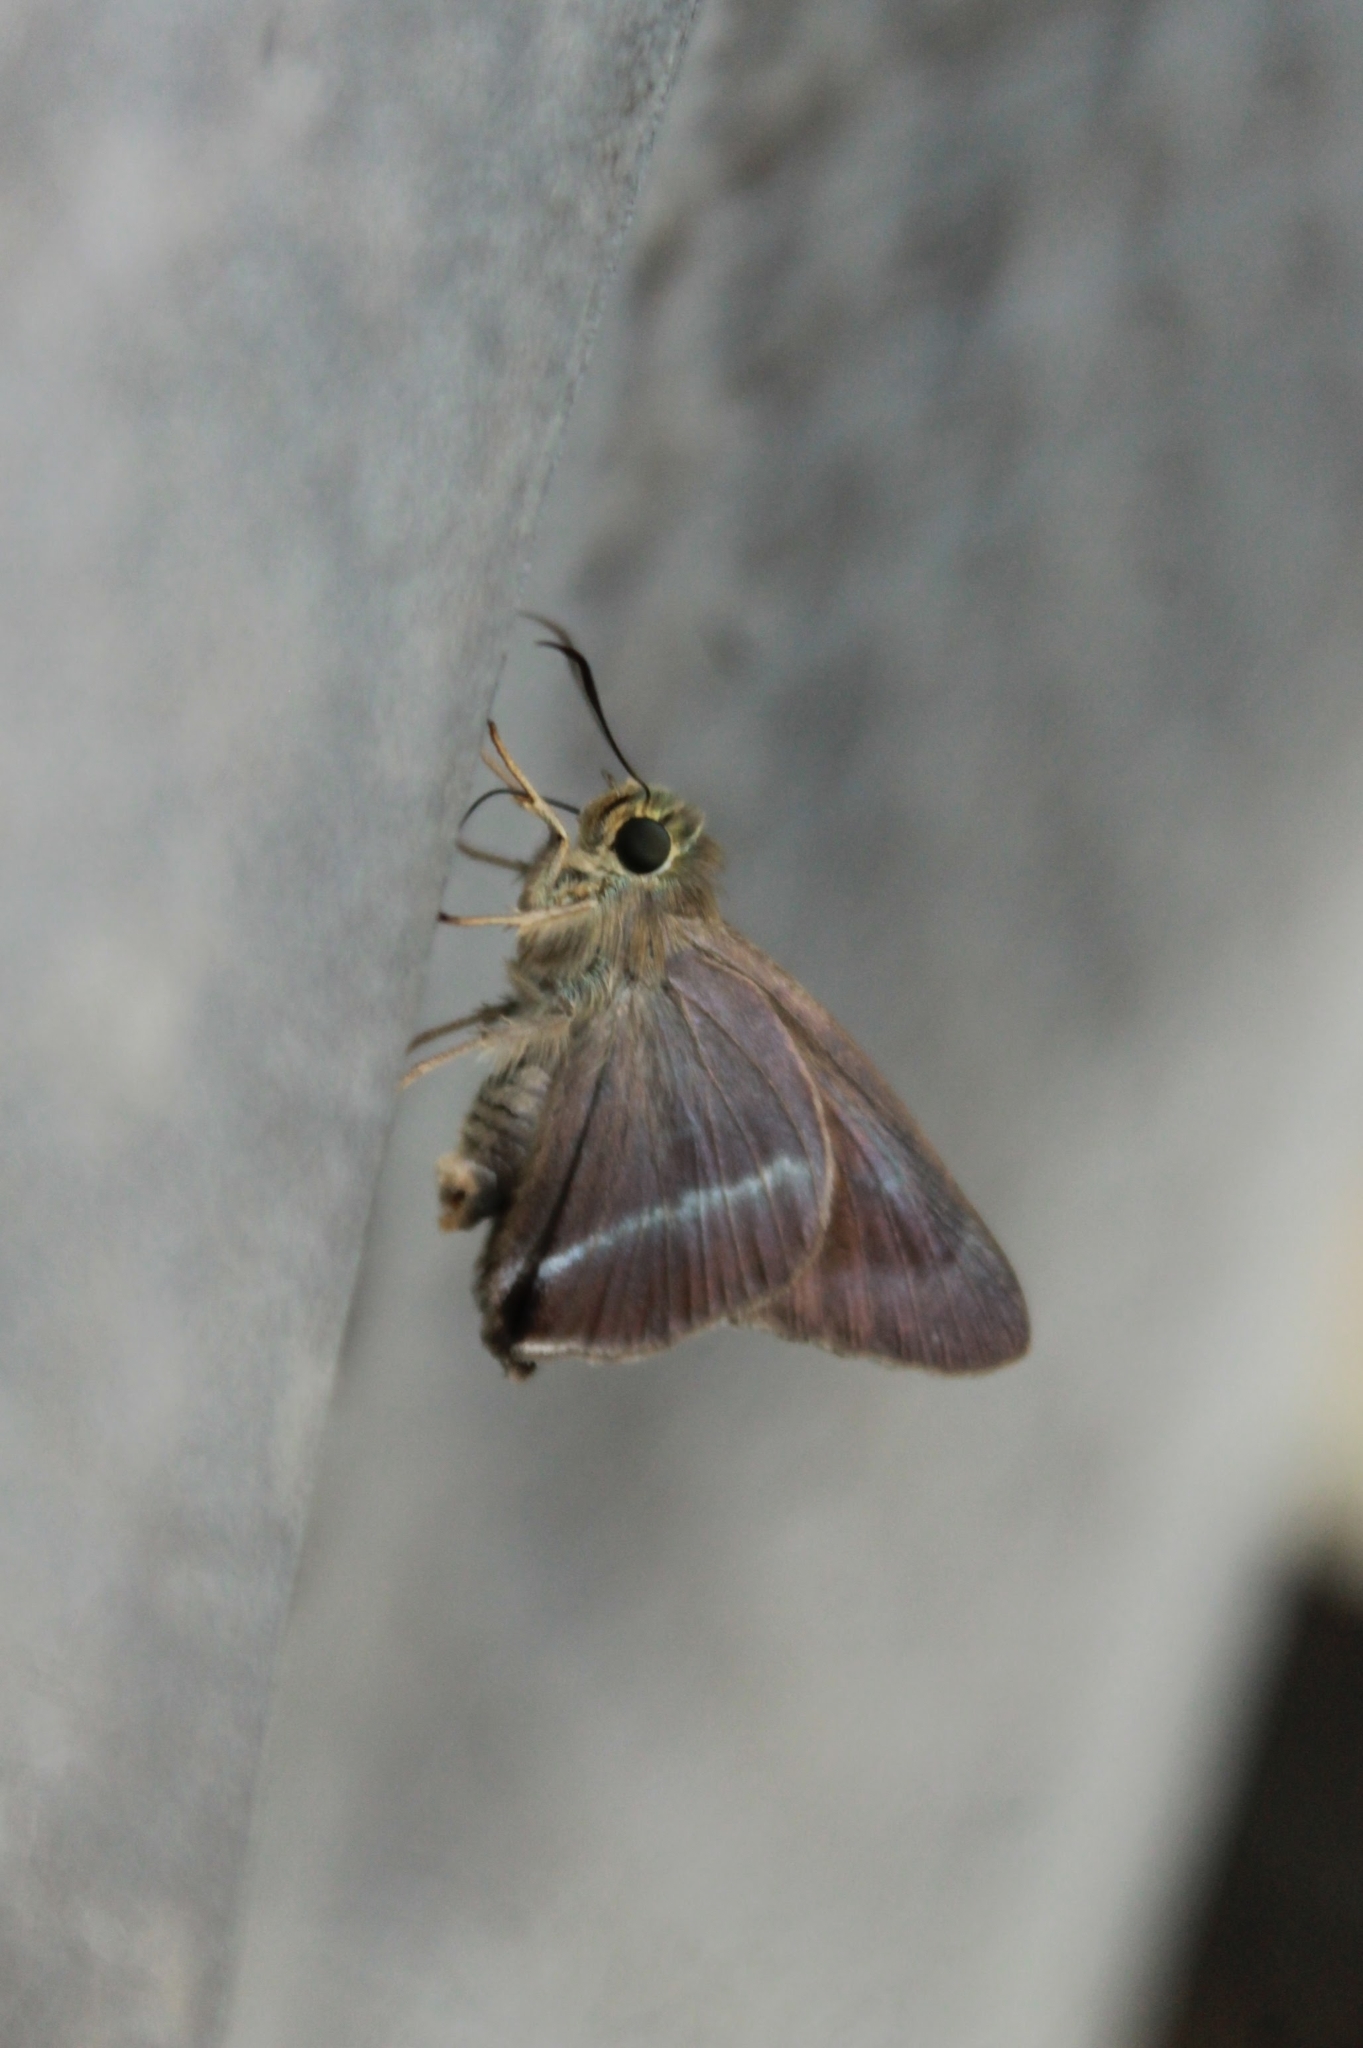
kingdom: Animalia
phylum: Arthropoda
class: Insecta
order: Lepidoptera
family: Hesperiidae
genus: Hasora
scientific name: Hasora chromus
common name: Common banded awl
